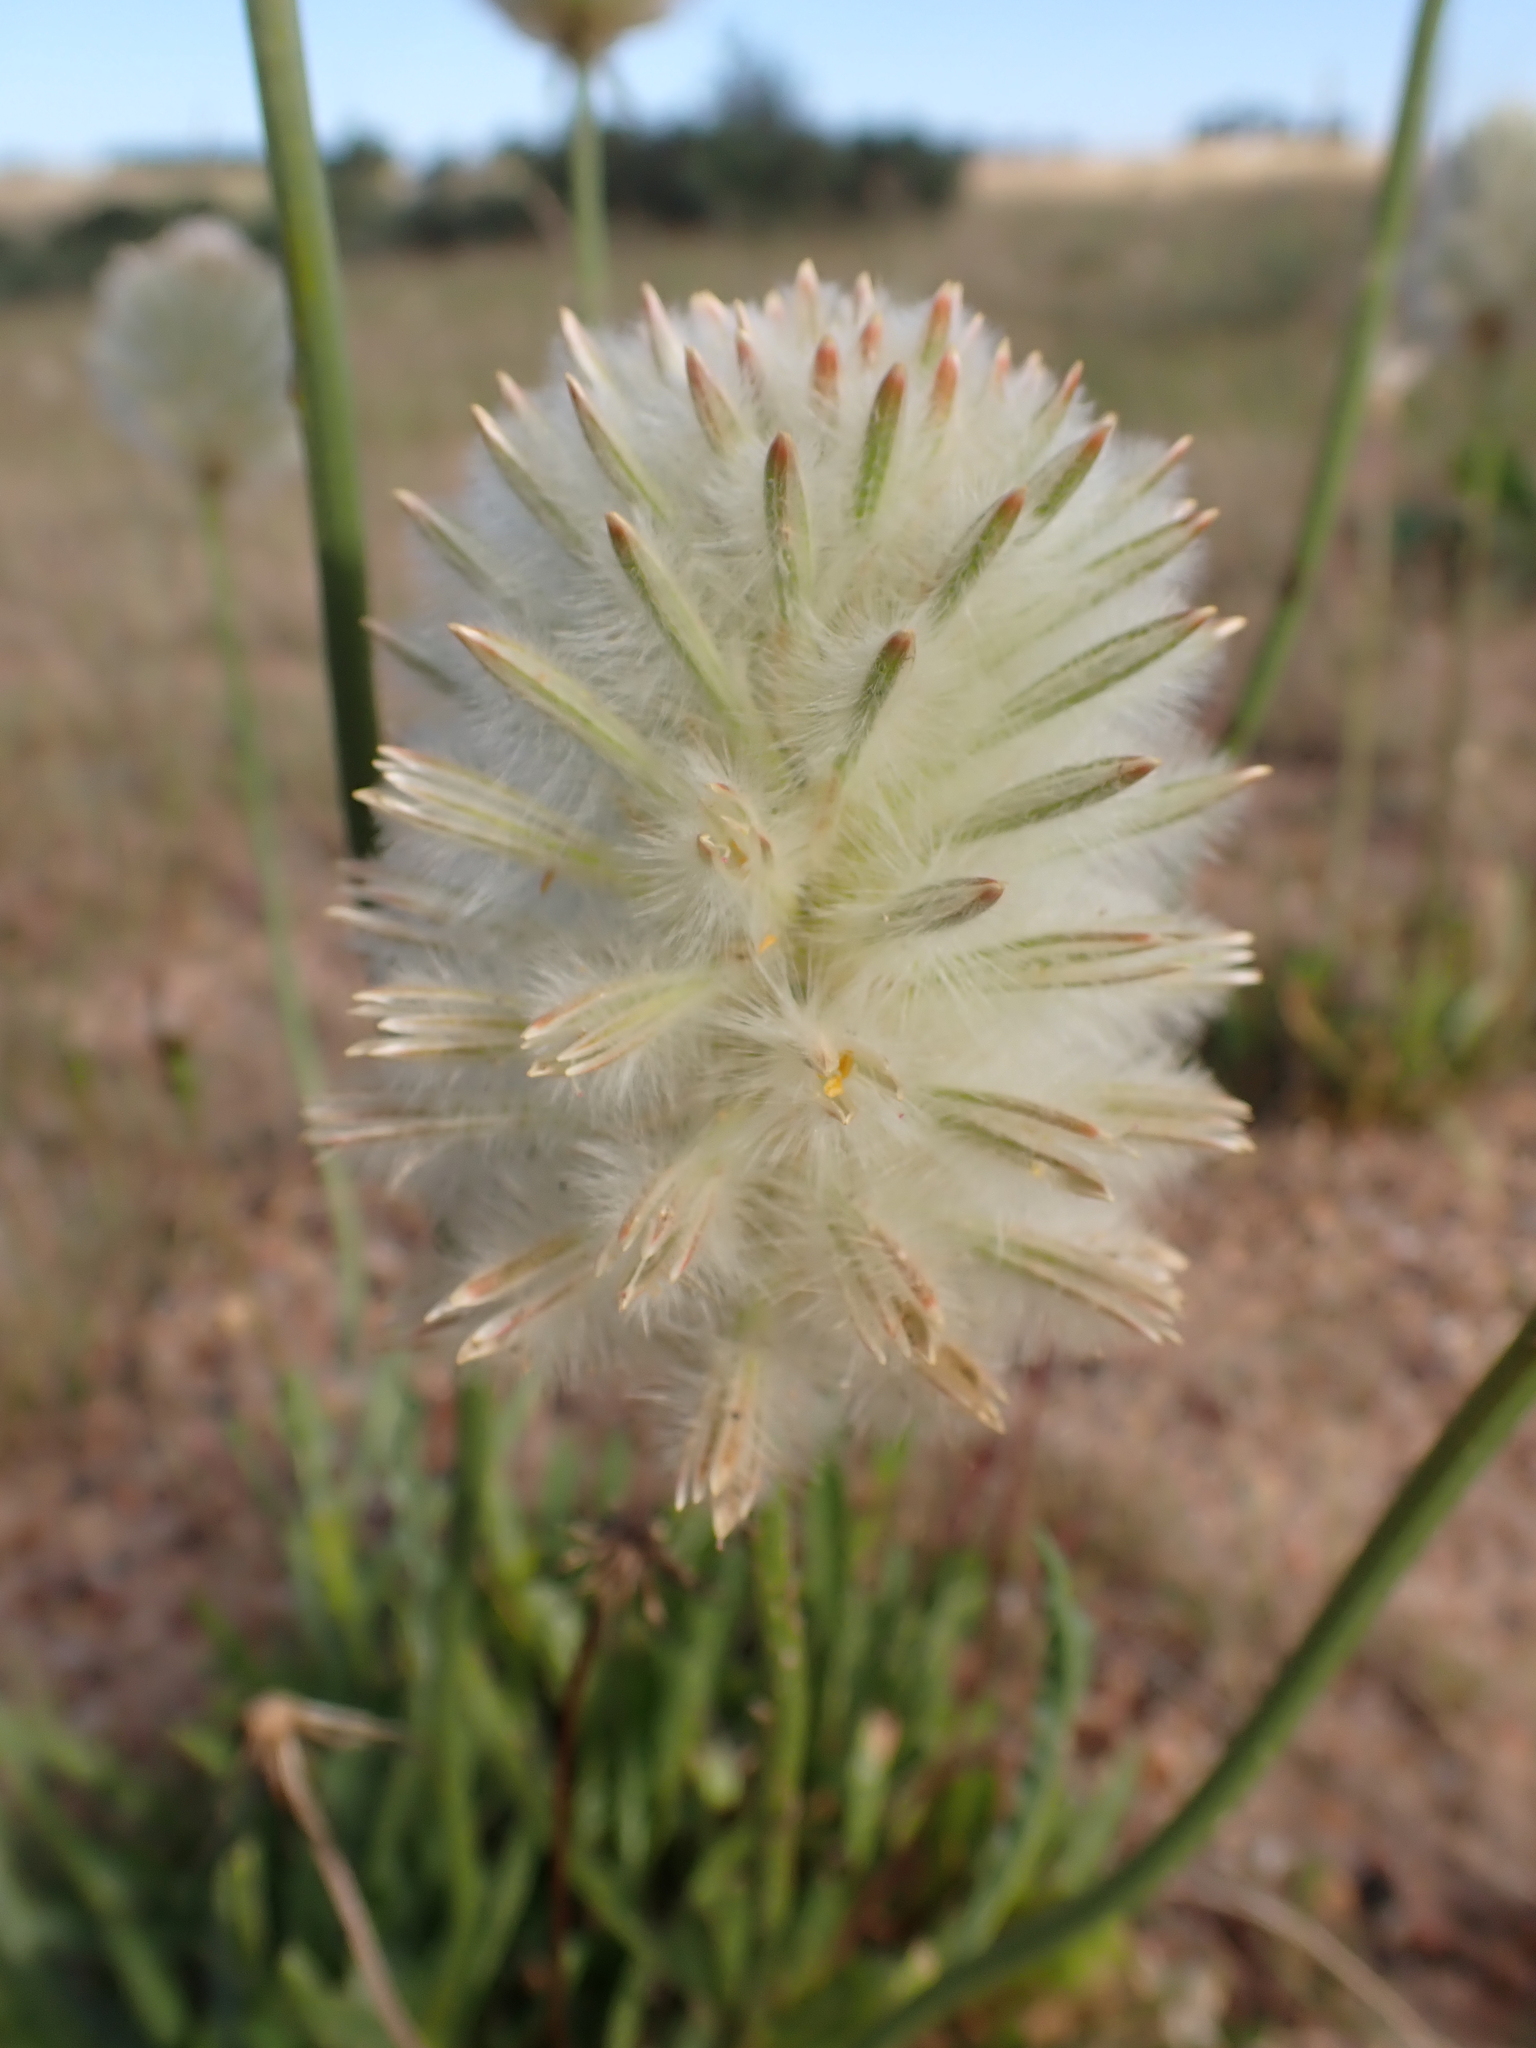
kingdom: Plantae
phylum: Tracheophyta
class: Magnoliopsida
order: Caryophyllales
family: Amaranthaceae
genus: Ptilotus
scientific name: Ptilotus macrocephalus
